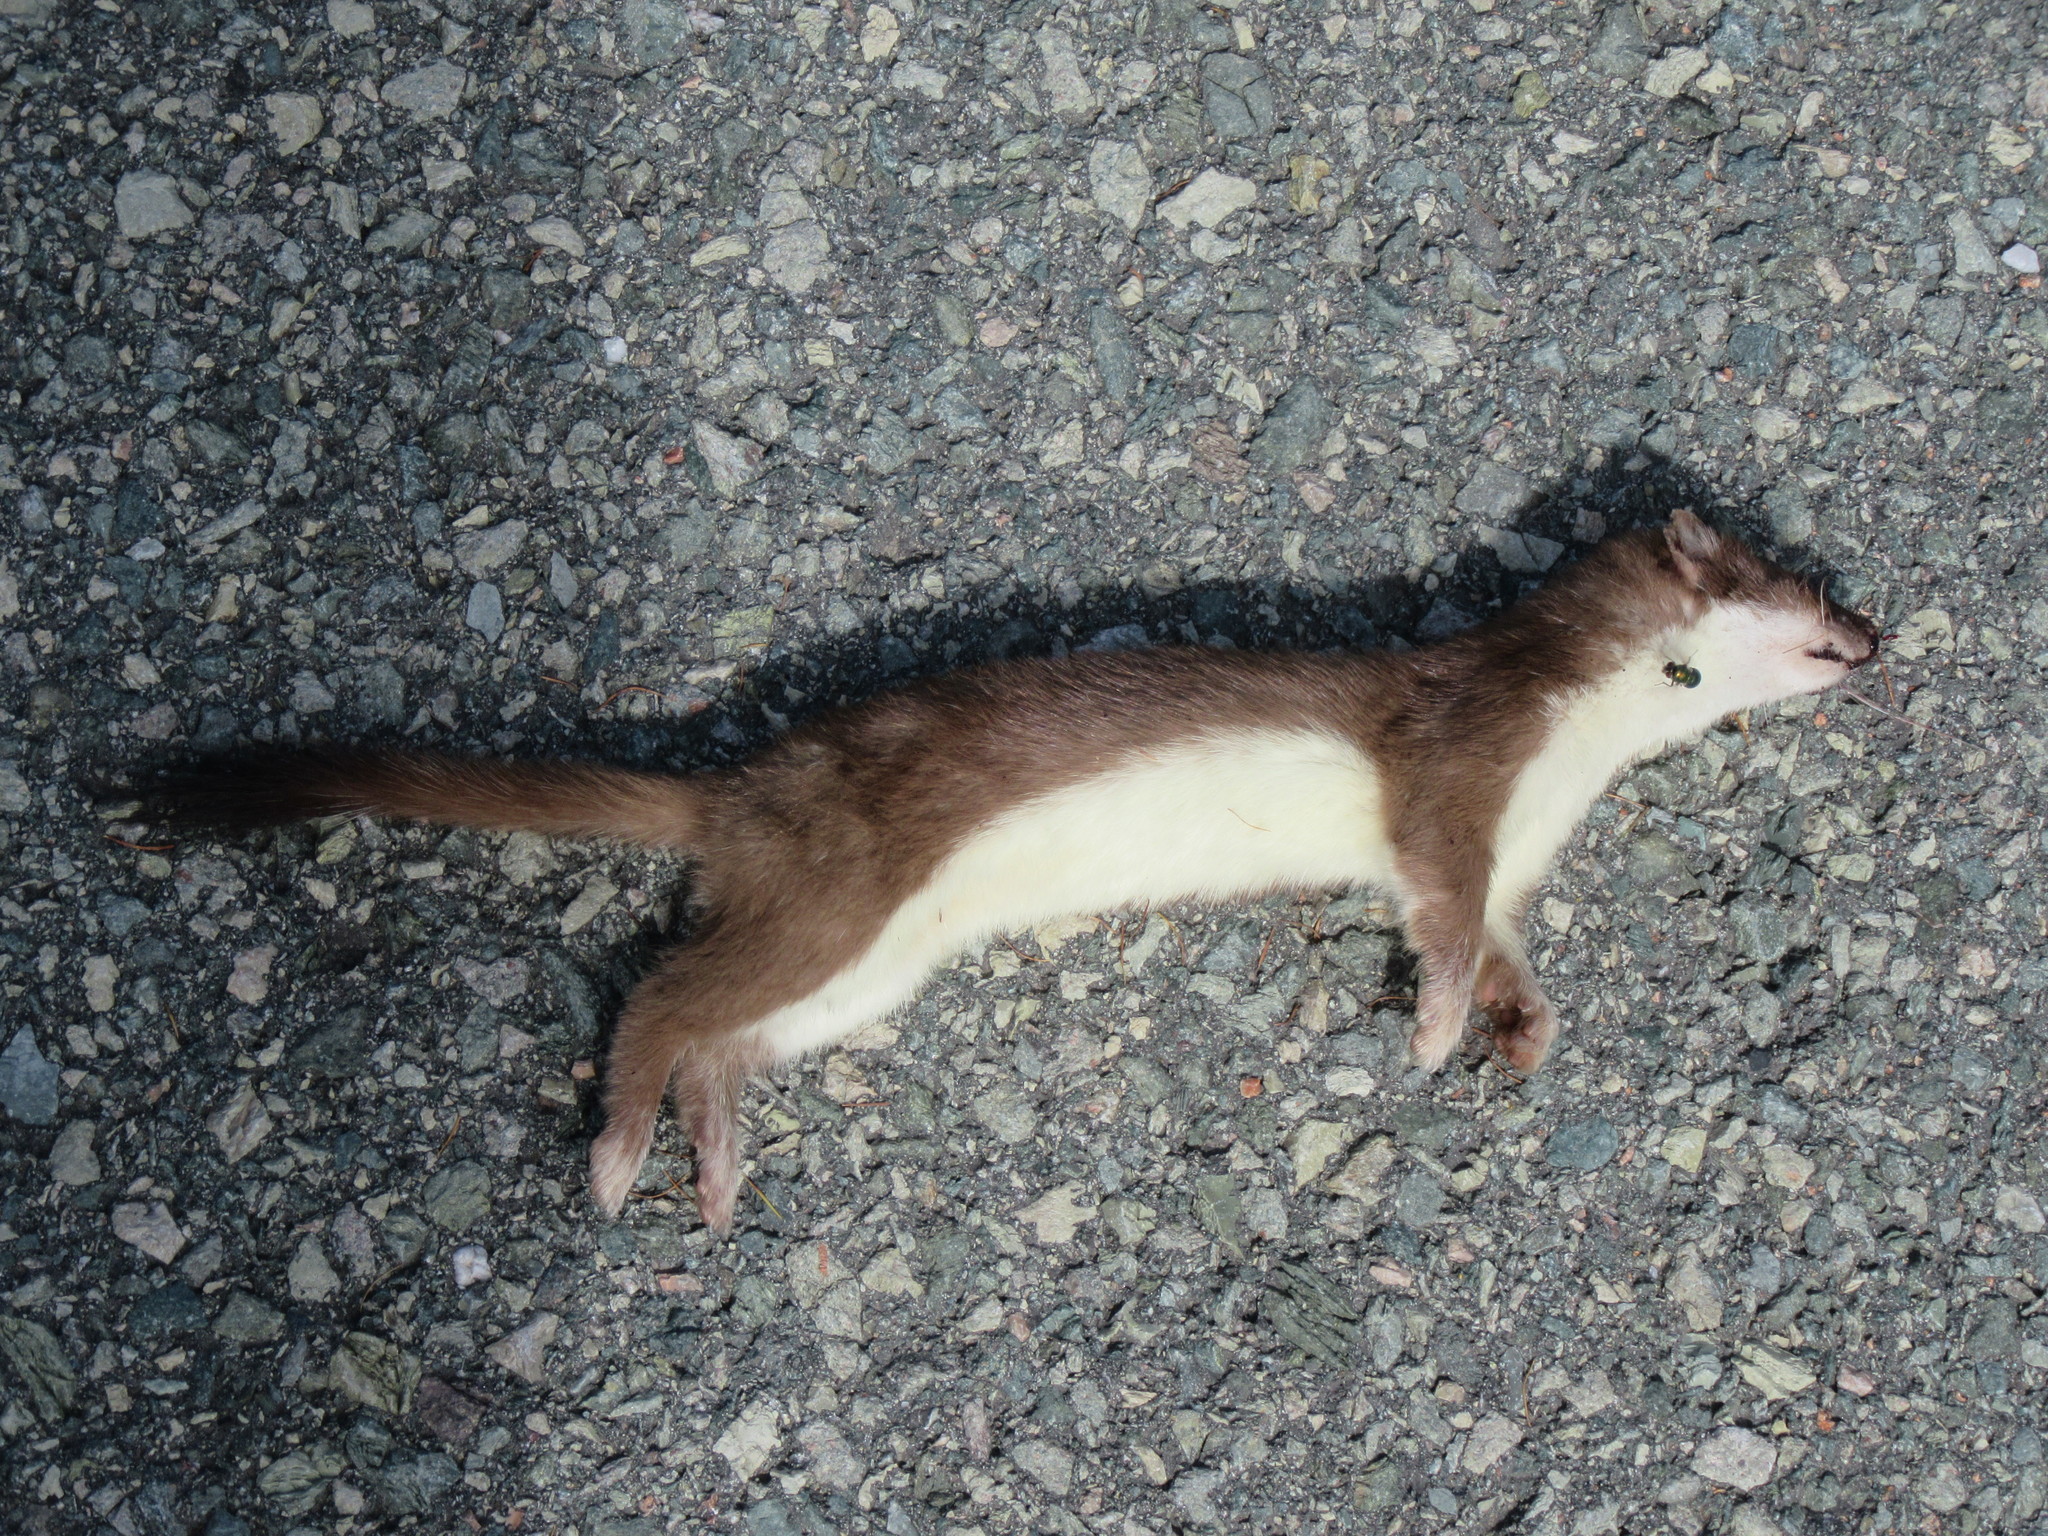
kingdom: Animalia
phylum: Chordata
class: Mammalia
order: Carnivora
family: Mustelidae
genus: Mustela
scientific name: Mustela erminea
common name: Stoat
